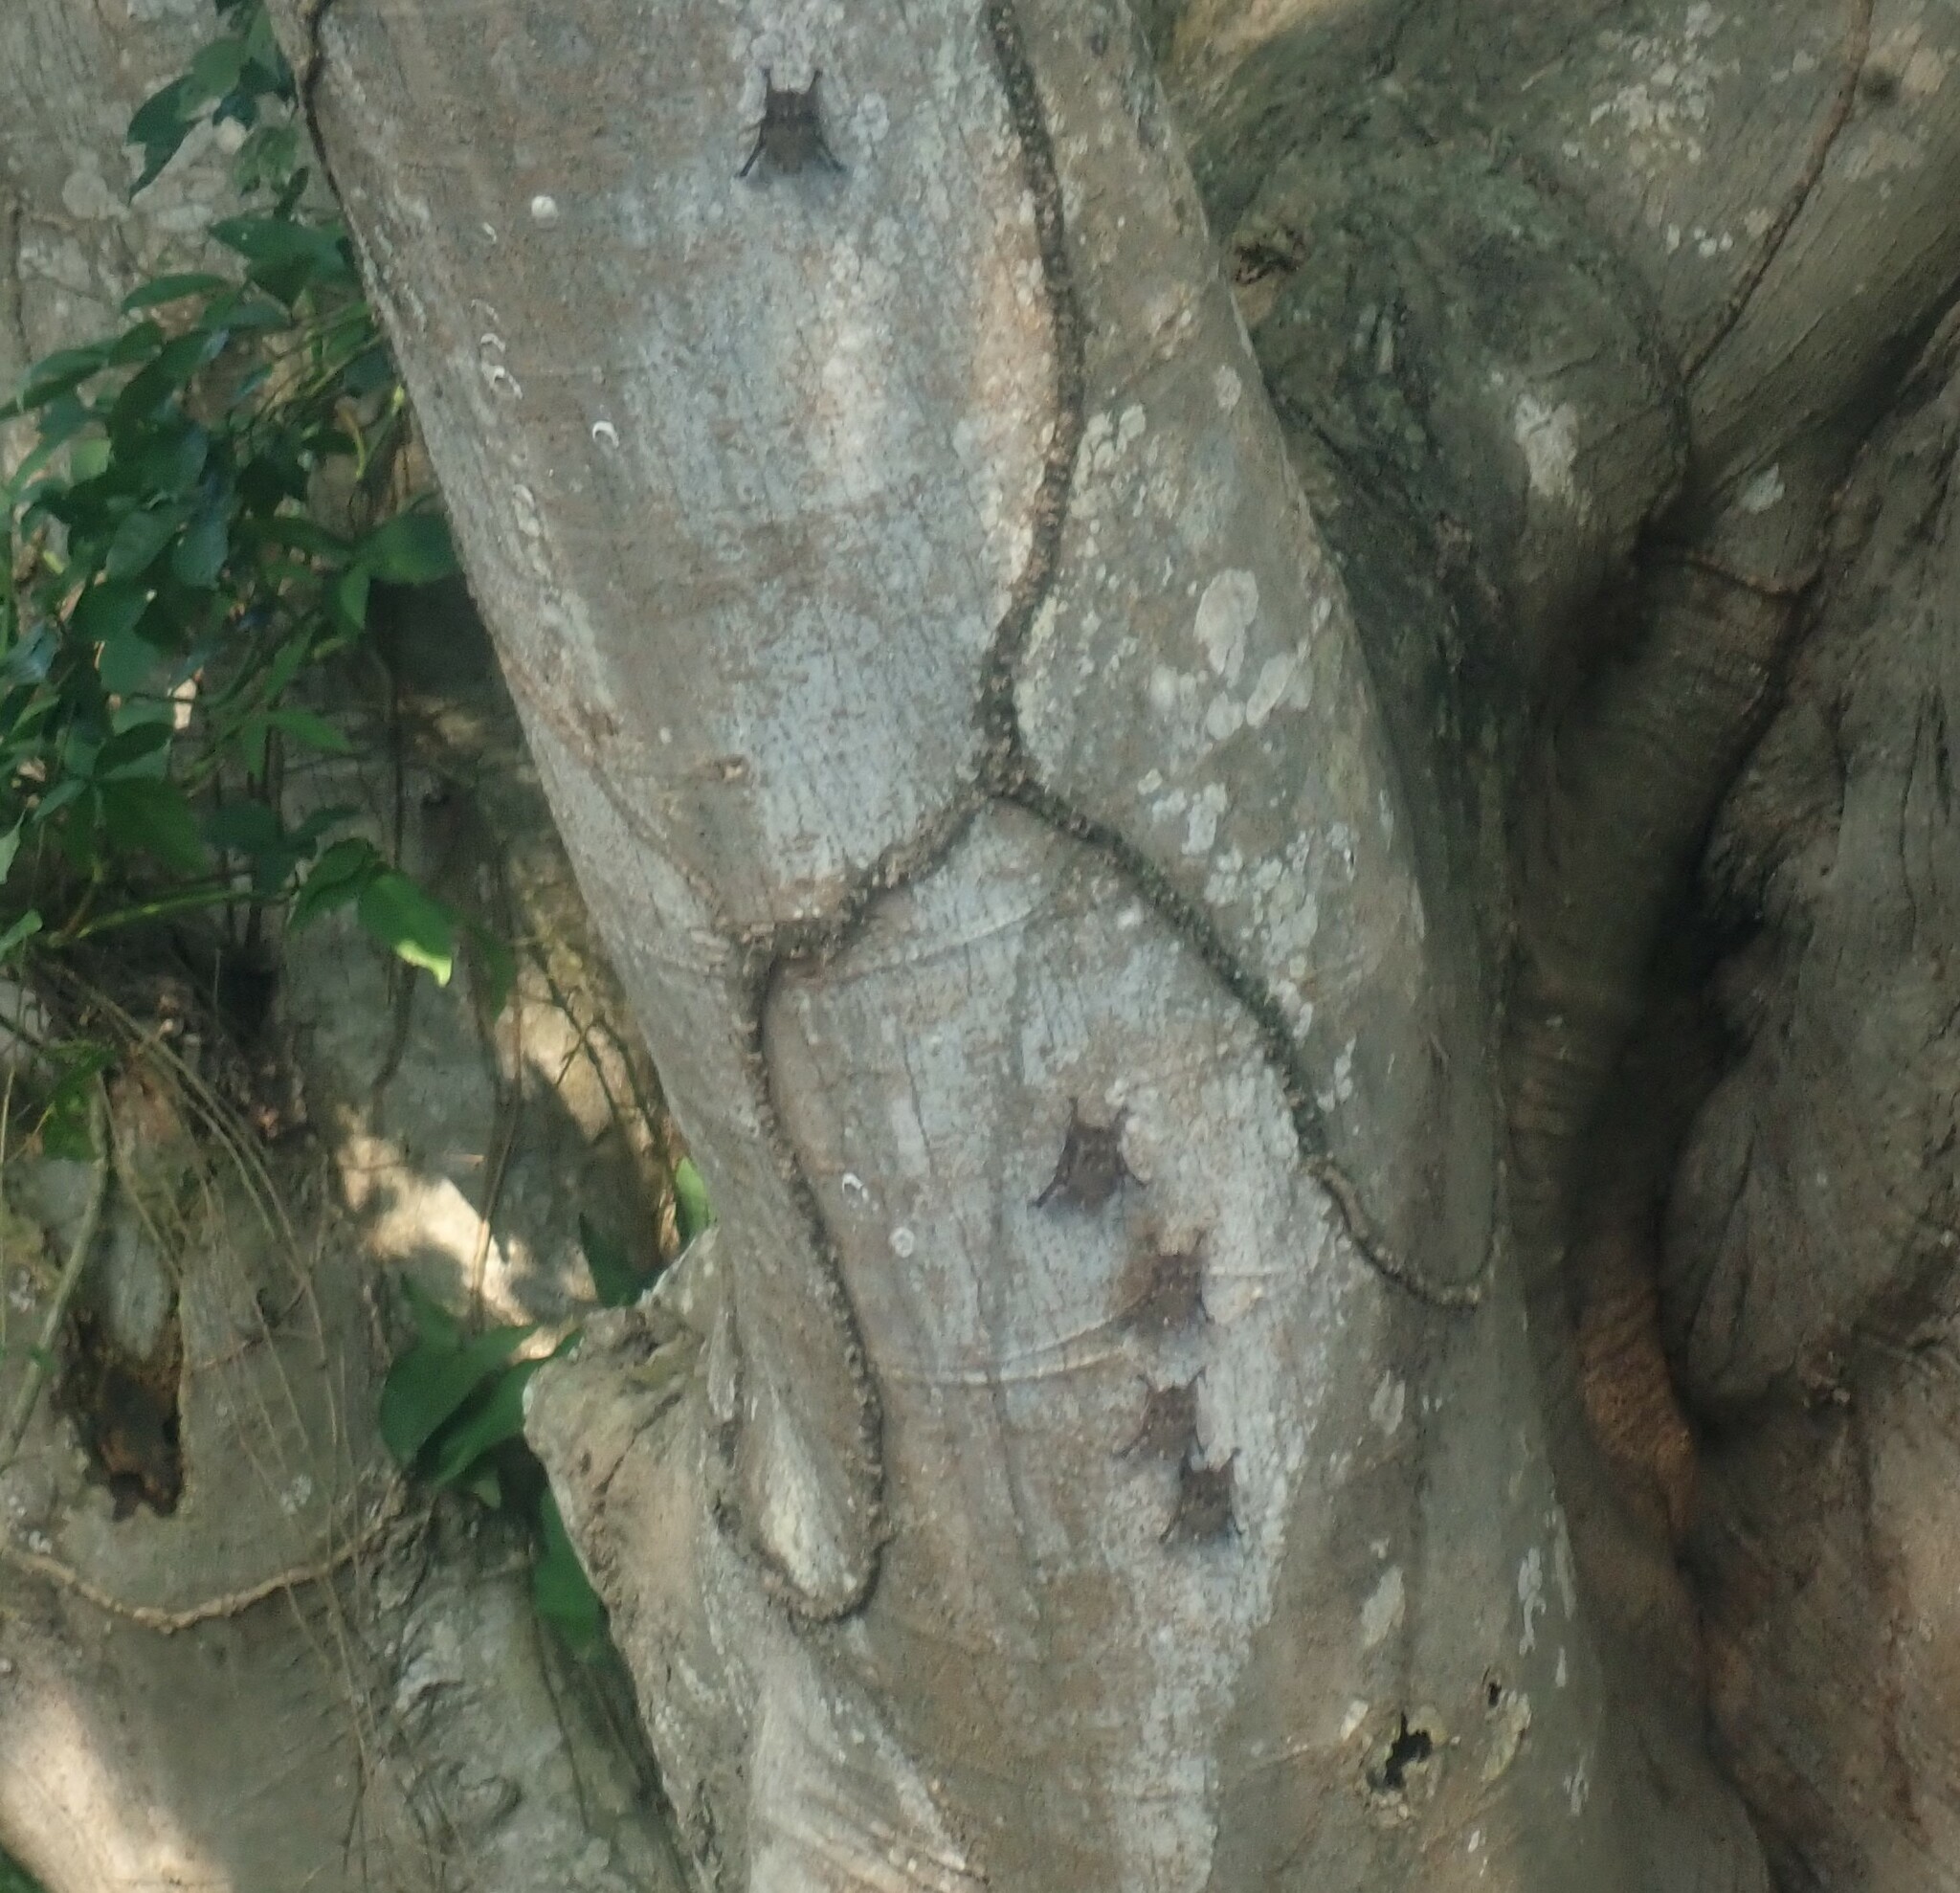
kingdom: Animalia
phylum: Chordata
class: Mammalia
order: Chiroptera
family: Emballonuridae
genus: Rhynchonycteris
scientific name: Rhynchonycteris naso
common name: Proboscis bat
